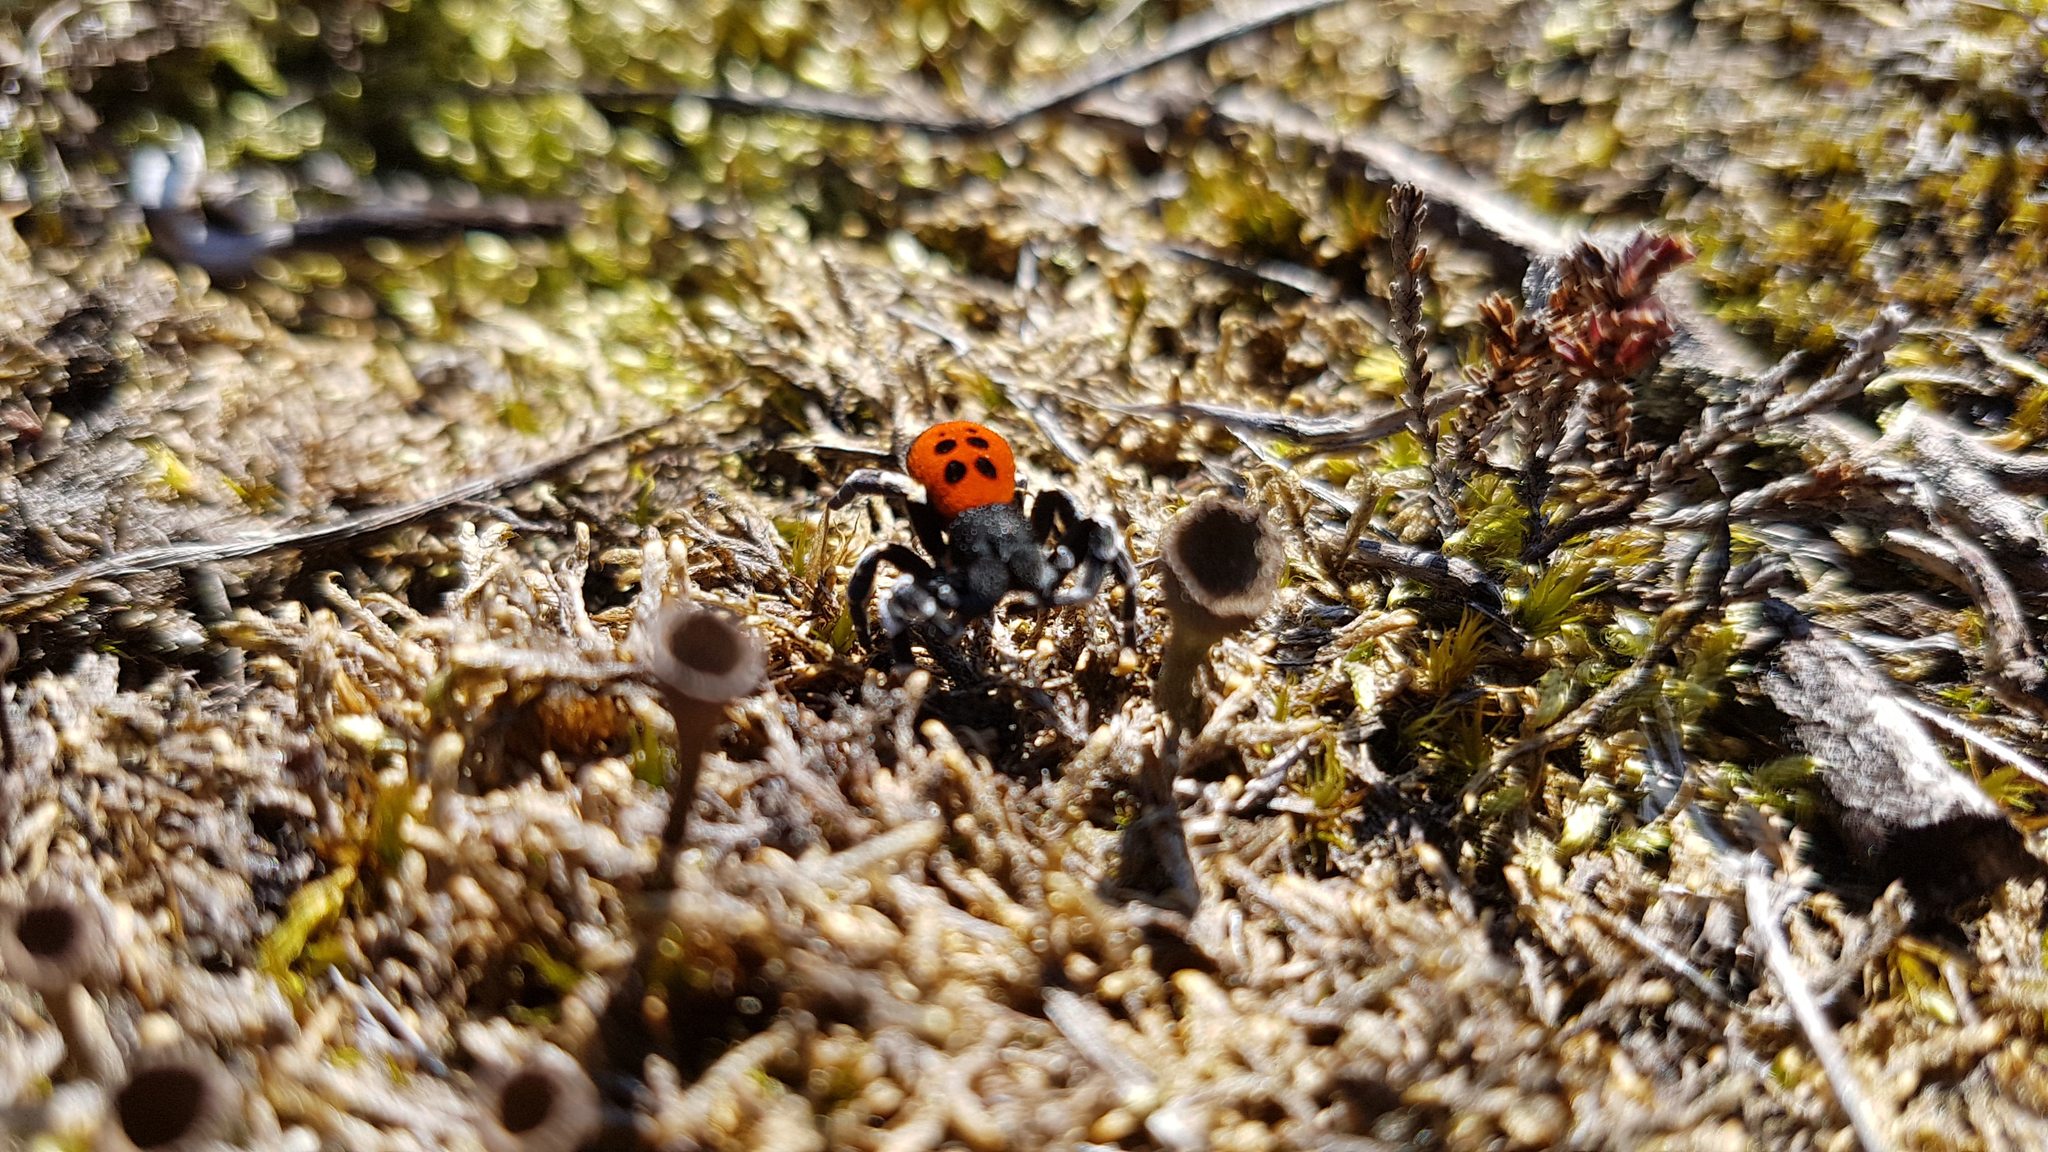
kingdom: Animalia
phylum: Arthropoda
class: Arachnida
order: Araneae
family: Eresidae
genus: Eresus
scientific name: Eresus sandaliatus
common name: Ladybird spider
